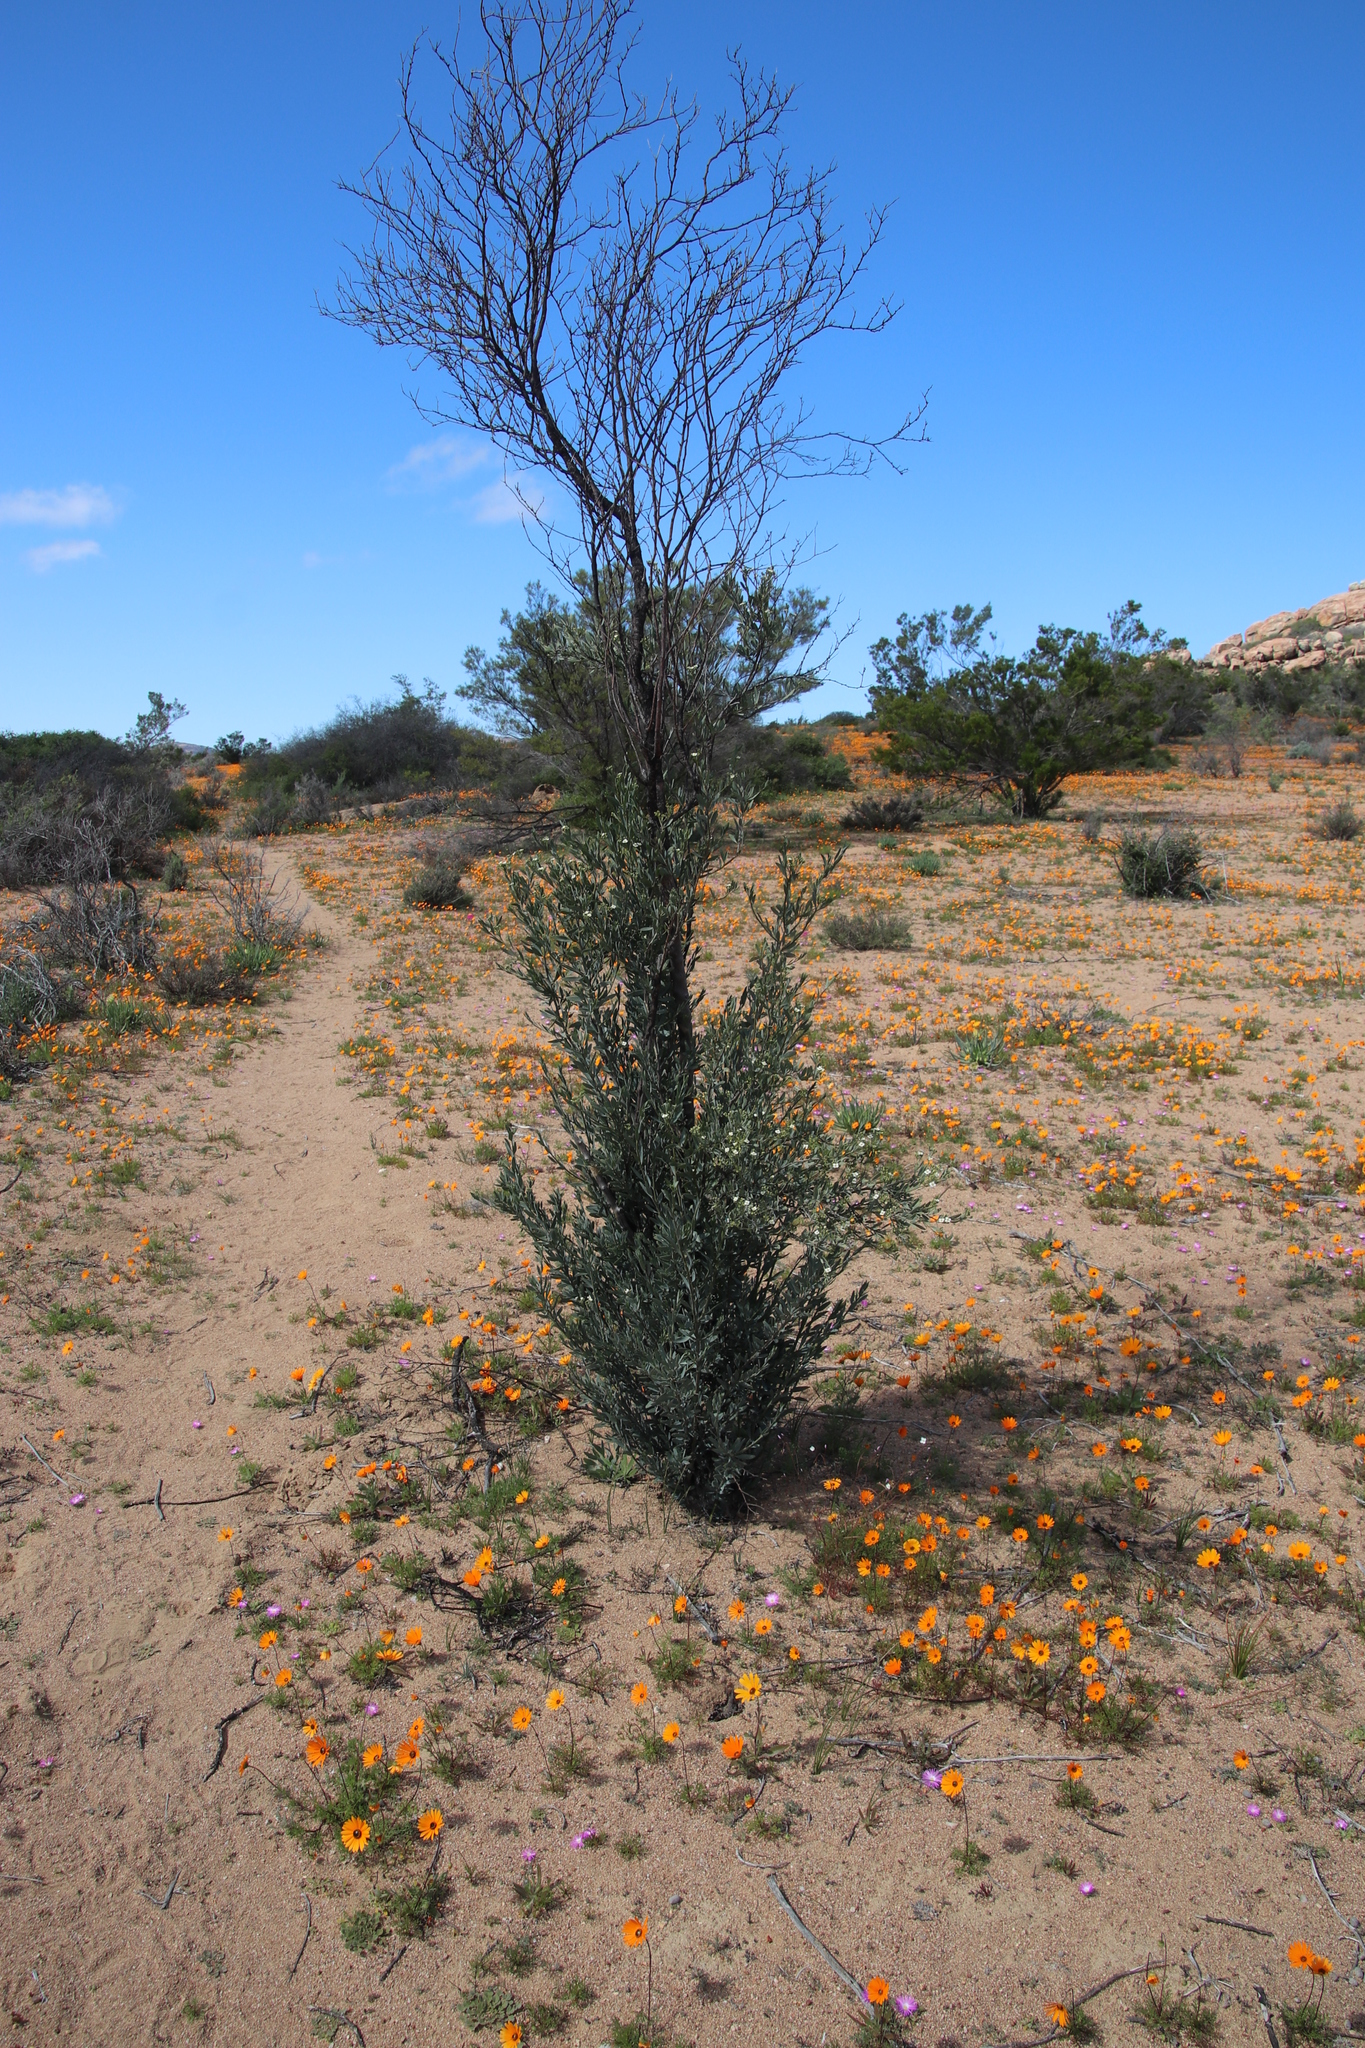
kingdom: Plantae
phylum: Tracheophyta
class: Magnoliopsida
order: Solanales
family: Montiniaceae
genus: Montinia
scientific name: Montinia caryophyllacea
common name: Wild clove-bush
